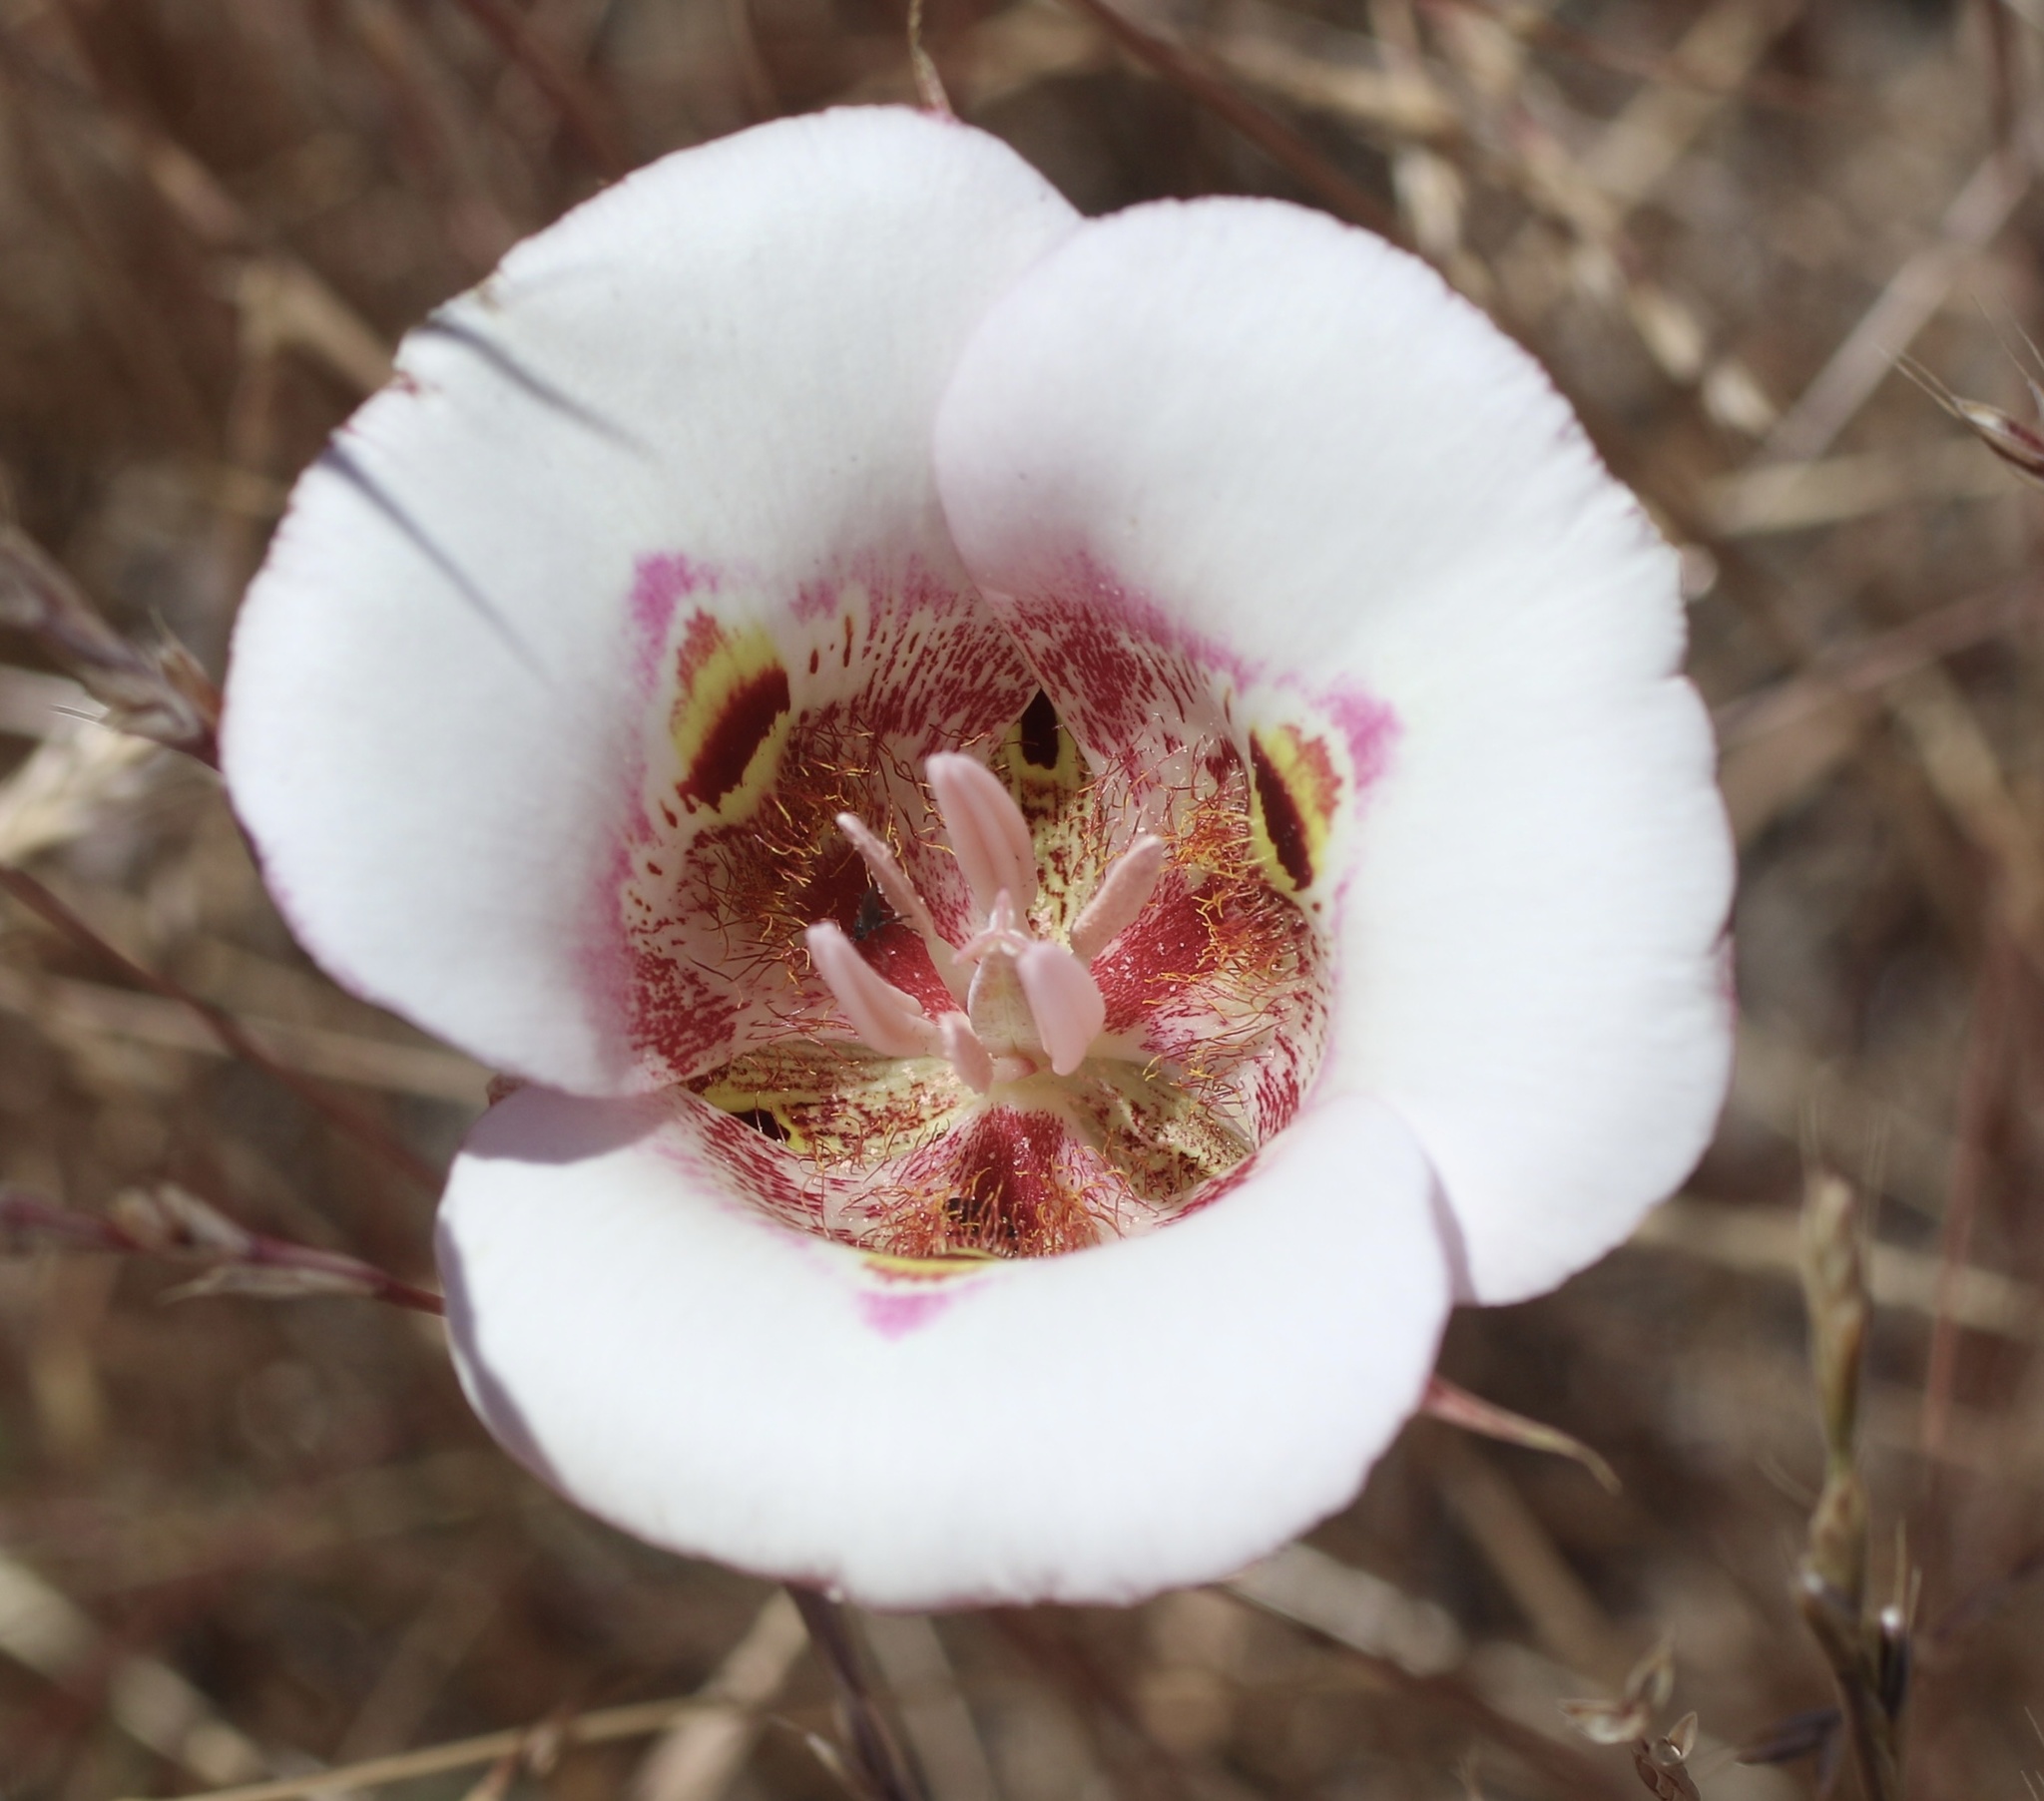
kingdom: Plantae
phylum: Tracheophyta
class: Liliopsida
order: Liliales
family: Liliaceae
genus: Calochortus
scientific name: Calochortus argillosus
